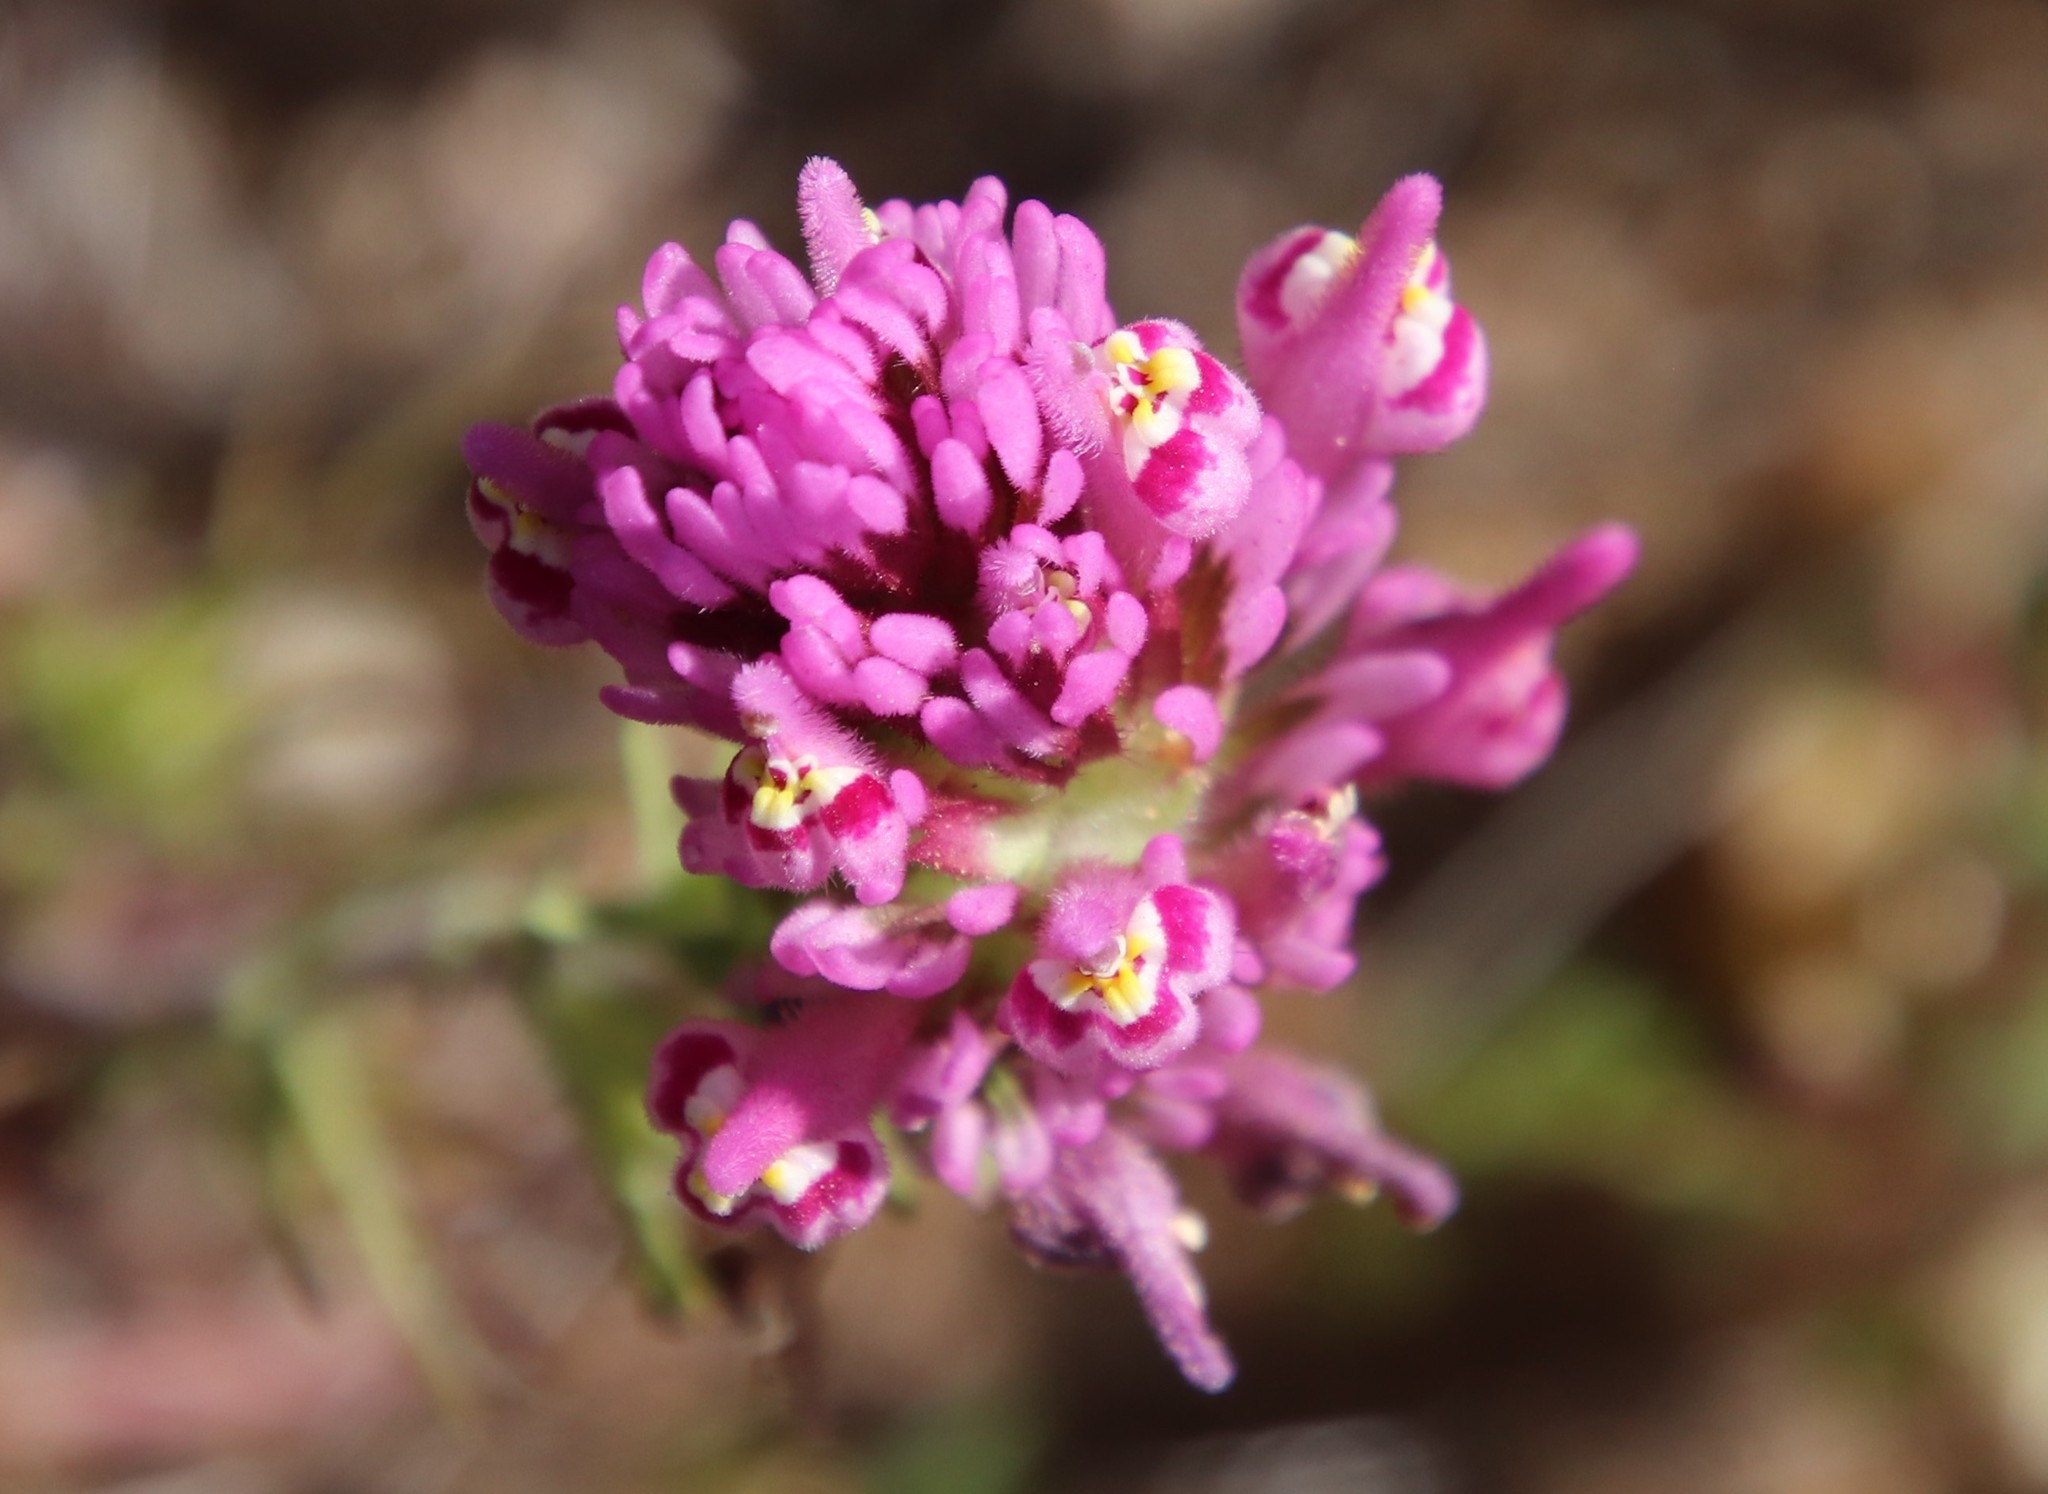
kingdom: Plantae
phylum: Tracheophyta
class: Magnoliopsida
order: Lamiales
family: Orobanchaceae
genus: Castilleja
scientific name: Castilleja exserta
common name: Purple owl-clover
